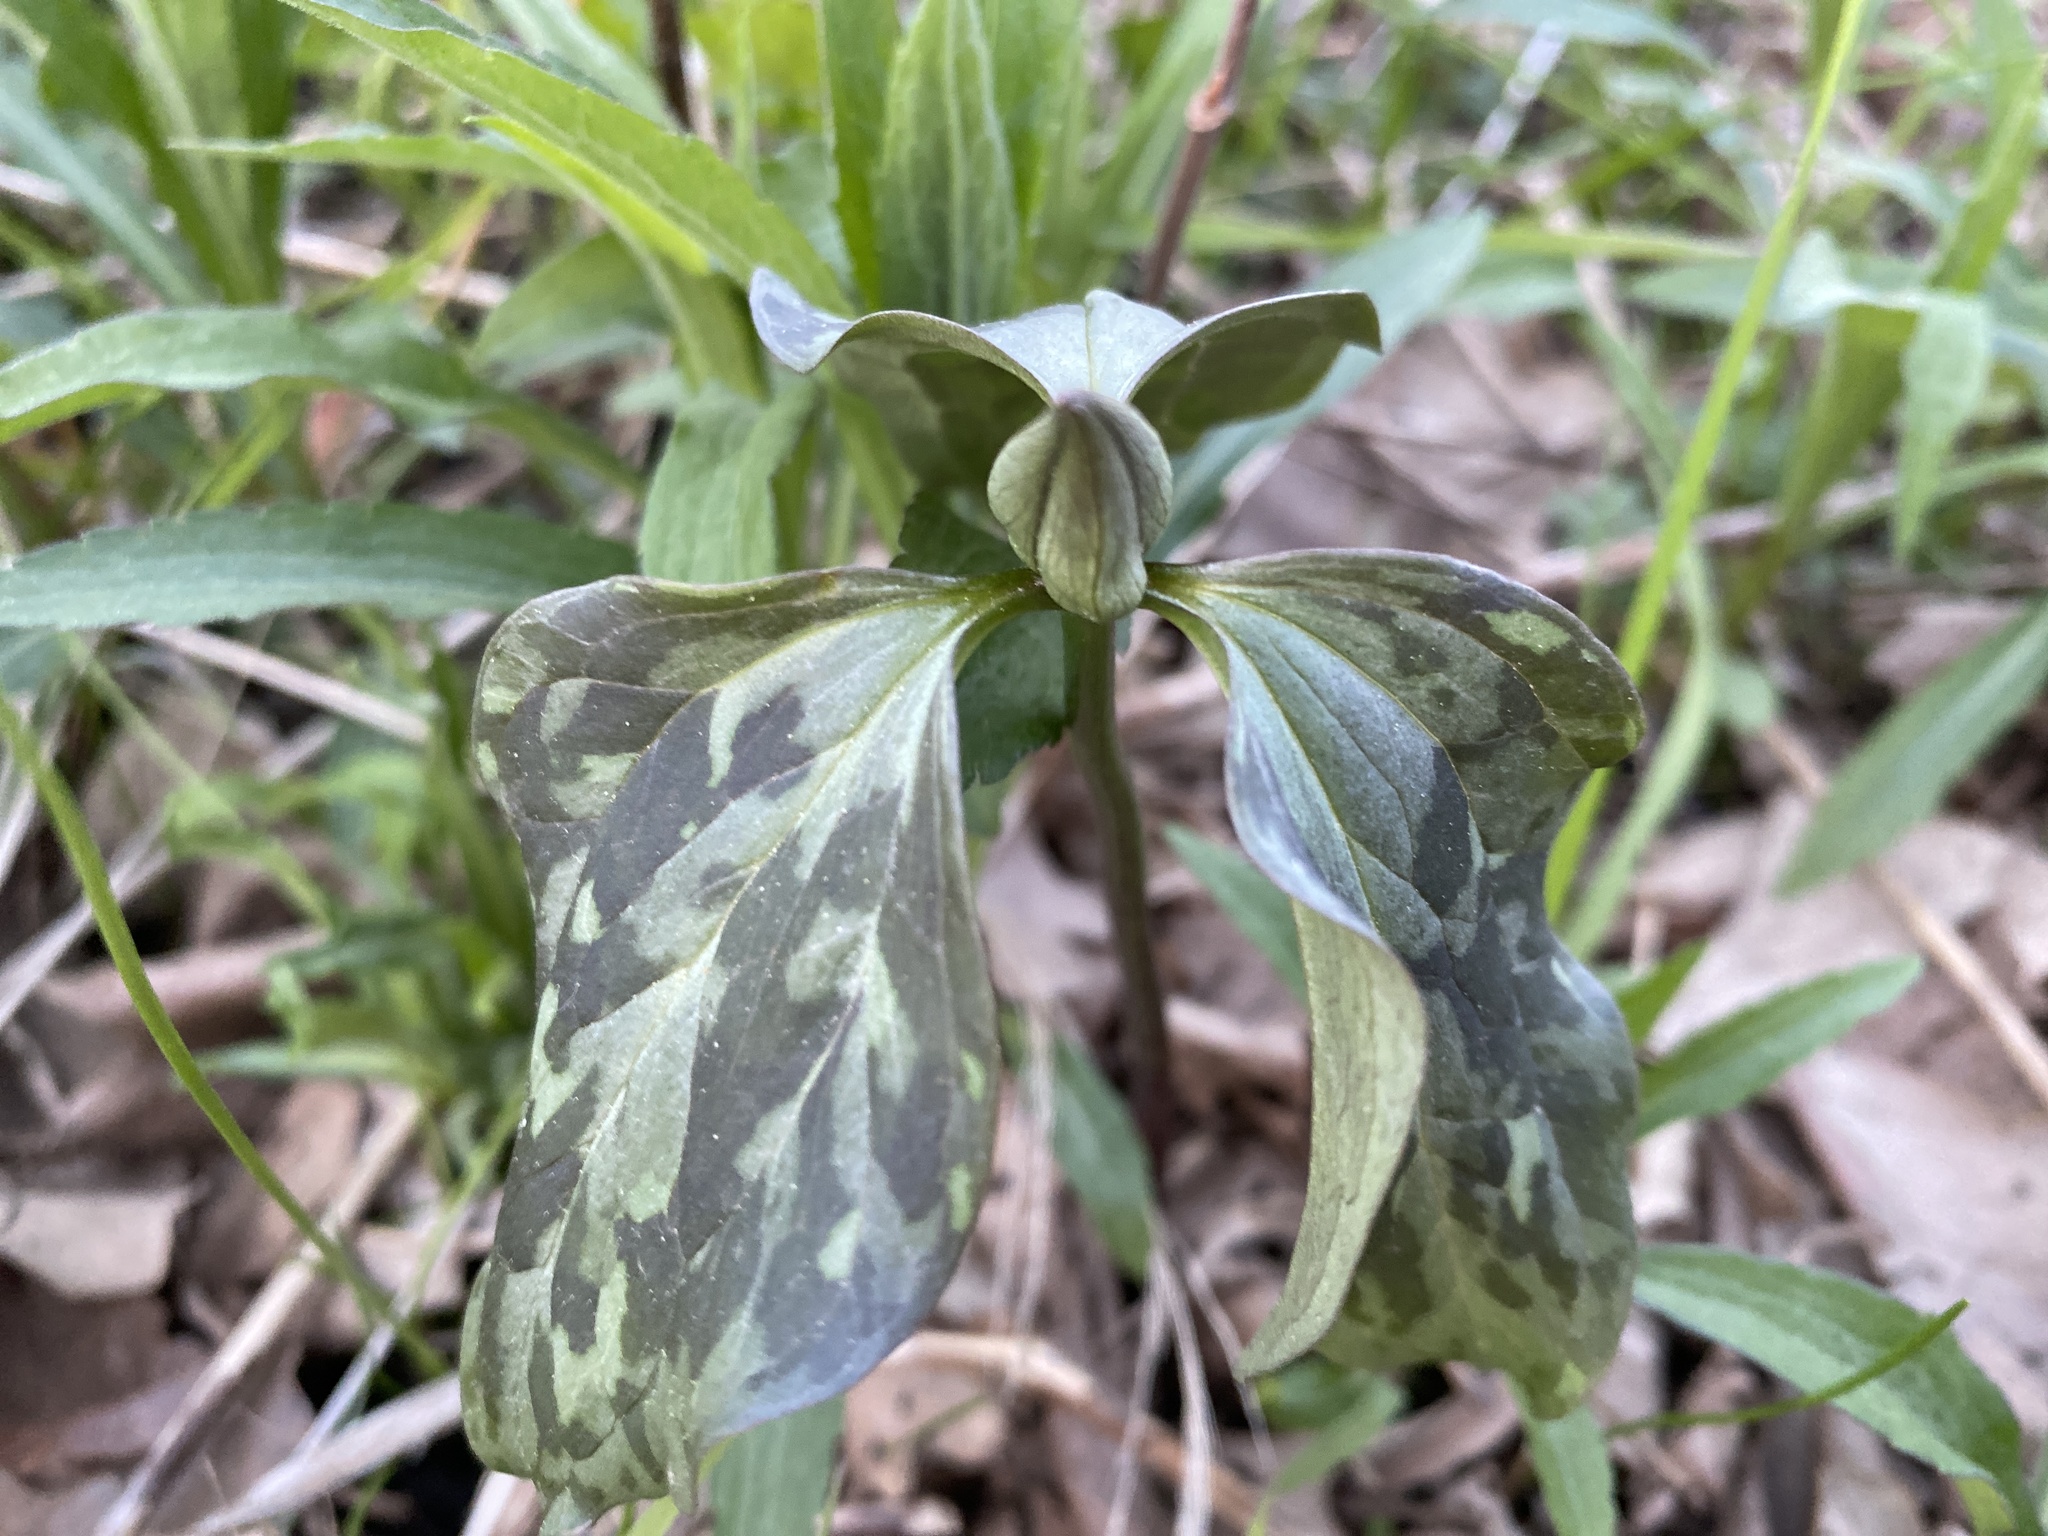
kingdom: Plantae
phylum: Tracheophyta
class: Liliopsida
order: Liliales
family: Melanthiaceae
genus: Trillium
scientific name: Trillium recurvatum
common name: Bloody butcher
